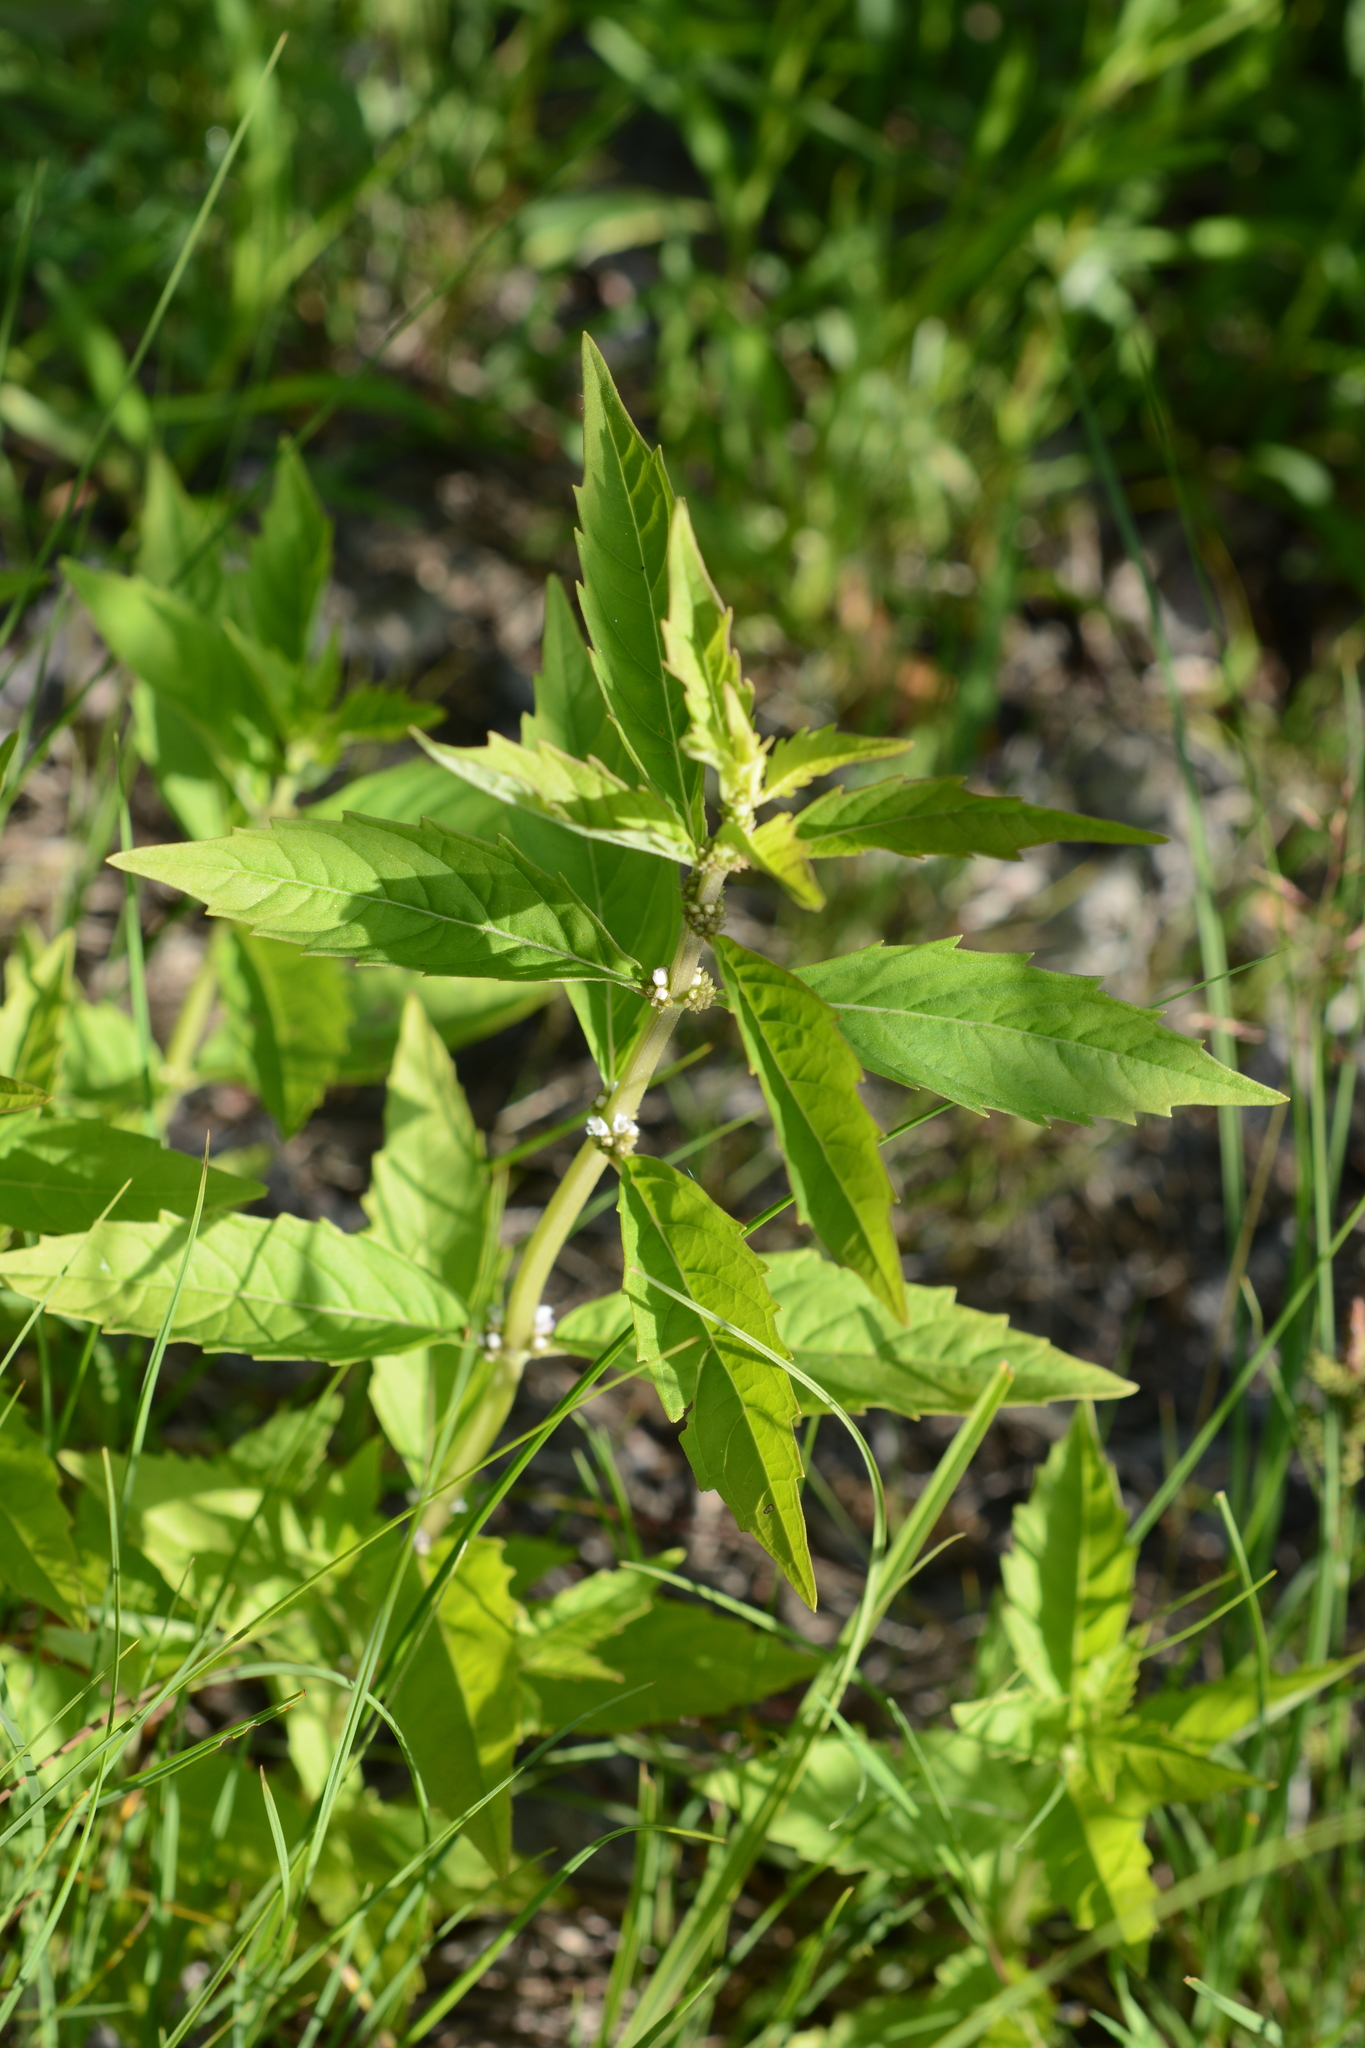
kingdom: Plantae
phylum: Tracheophyta
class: Magnoliopsida
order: Lamiales
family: Lamiaceae
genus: Lycopus
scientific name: Lycopus uniflorus
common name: Northern bugleweed
